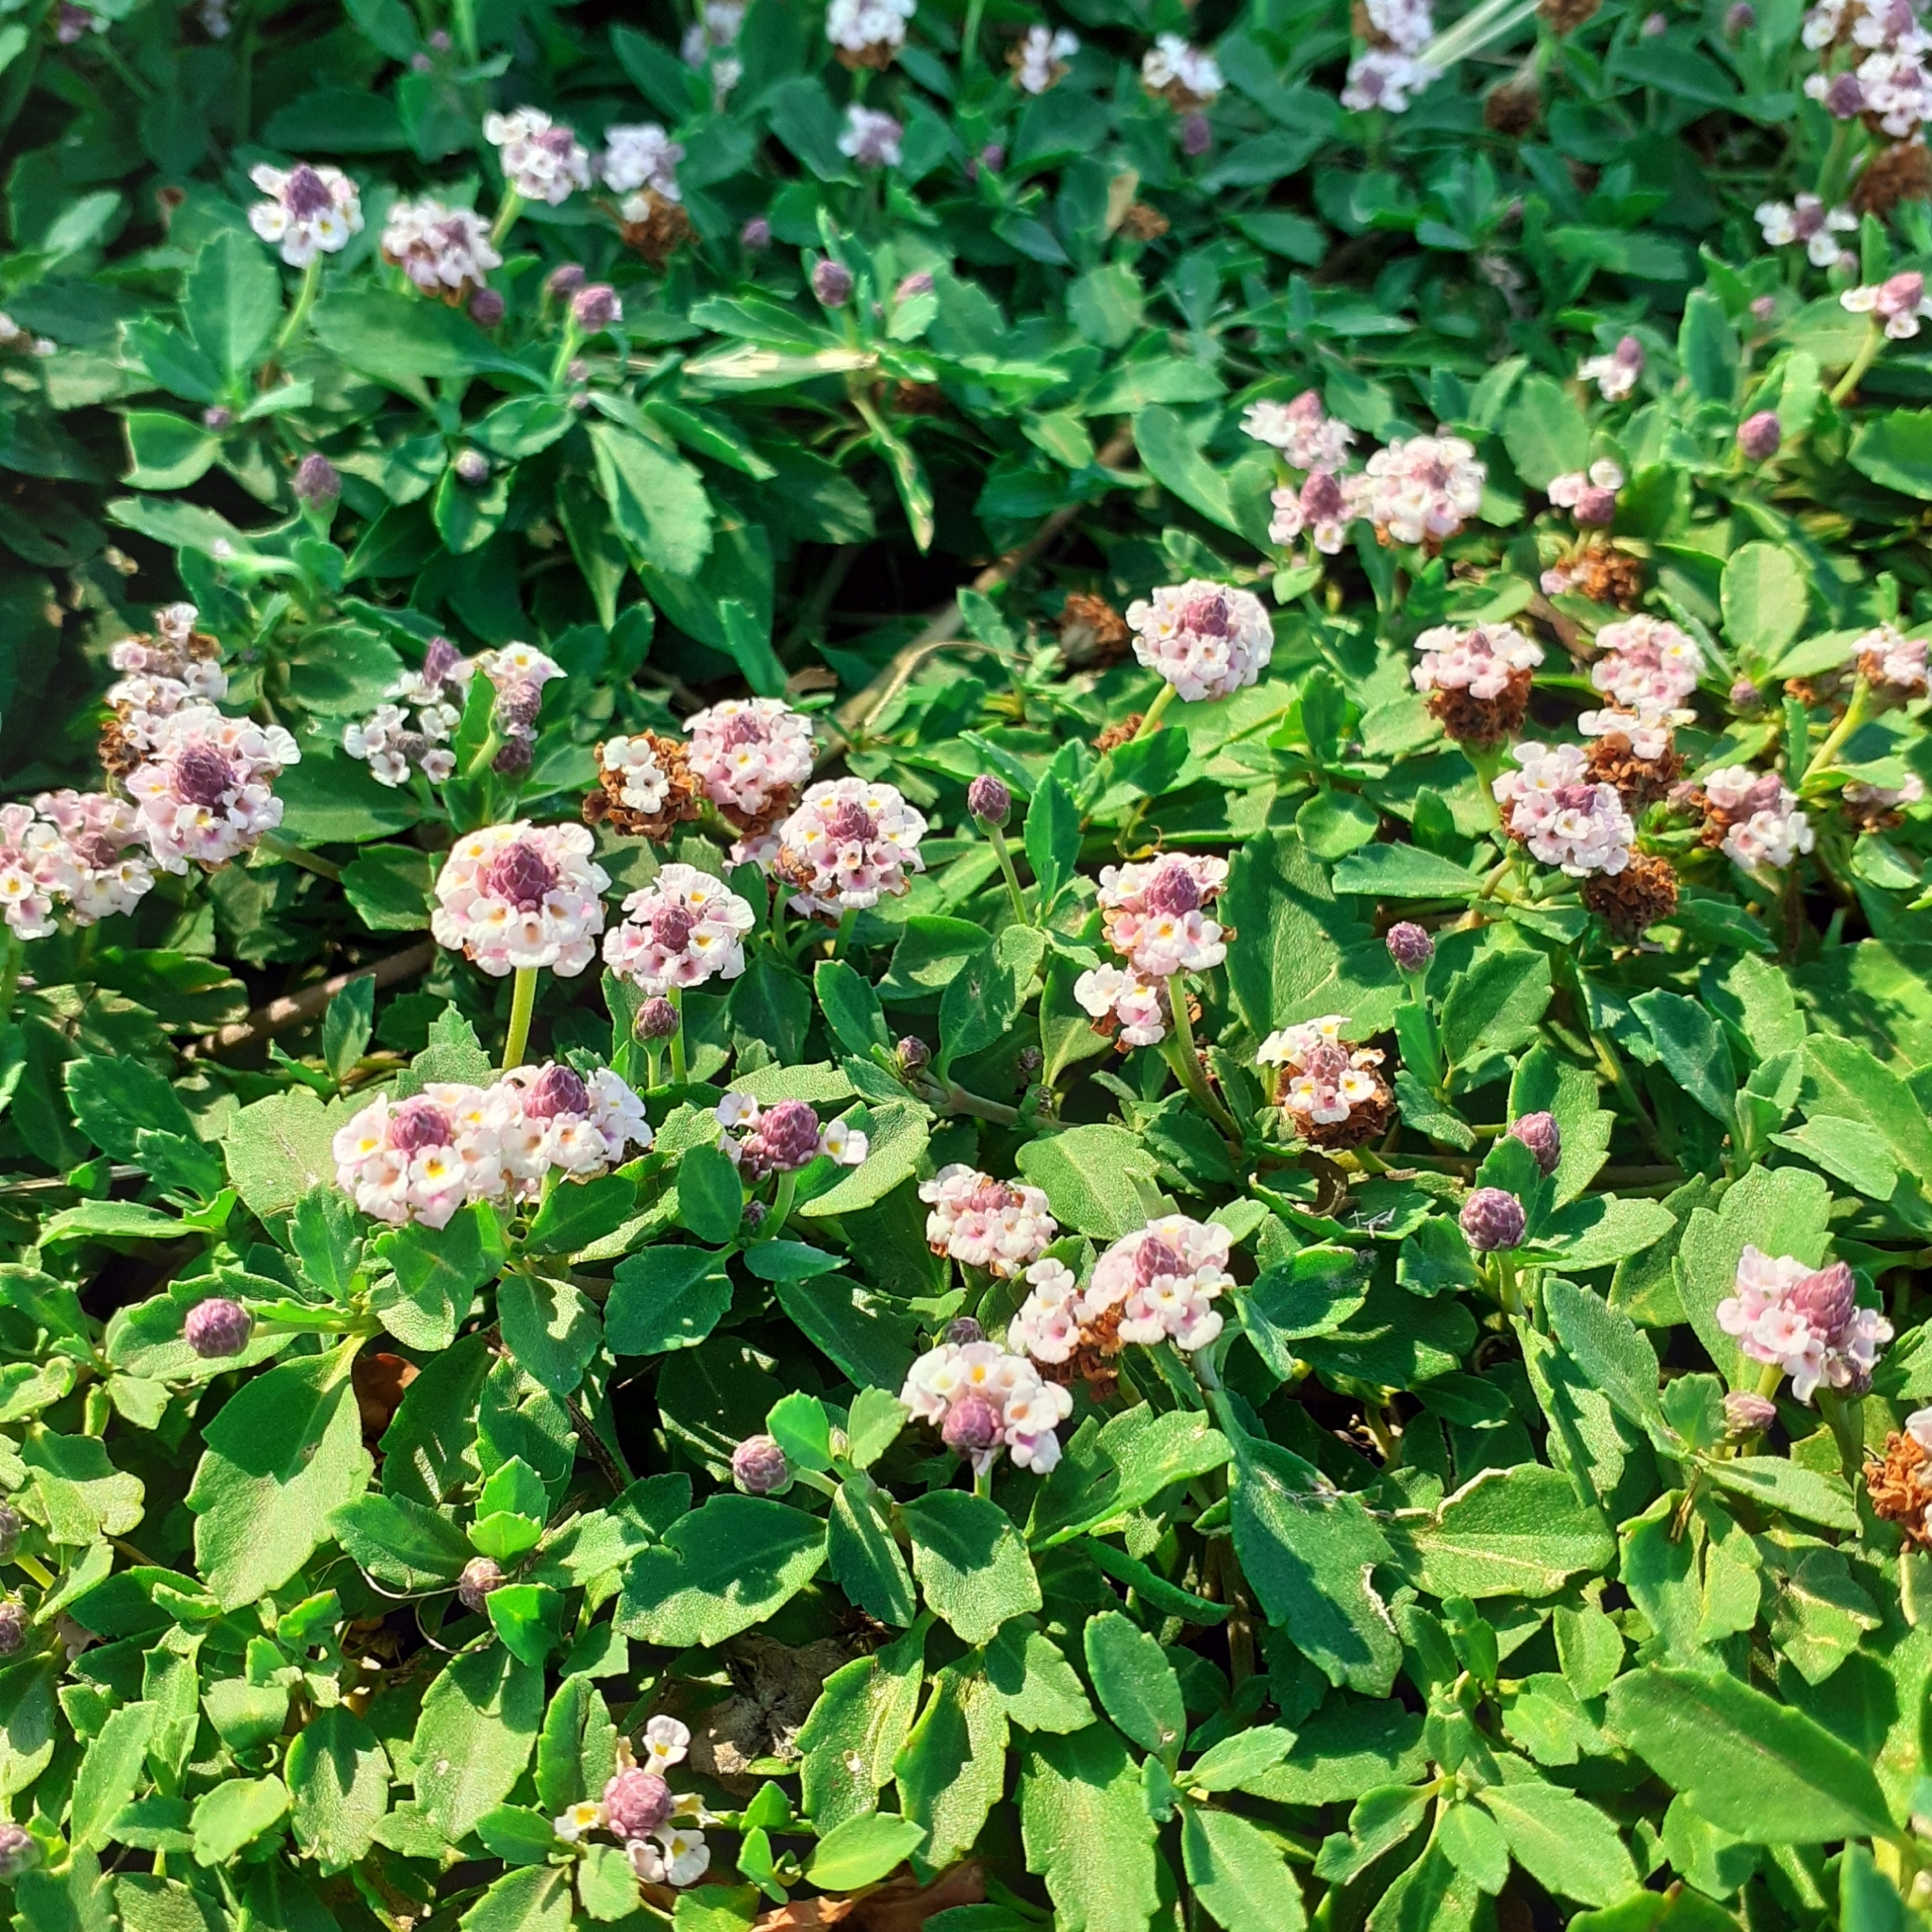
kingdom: Plantae
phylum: Tracheophyta
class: Magnoliopsida
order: Lamiales
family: Verbenaceae
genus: Phyla
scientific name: Phyla nodiflora
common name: Frogfruit
